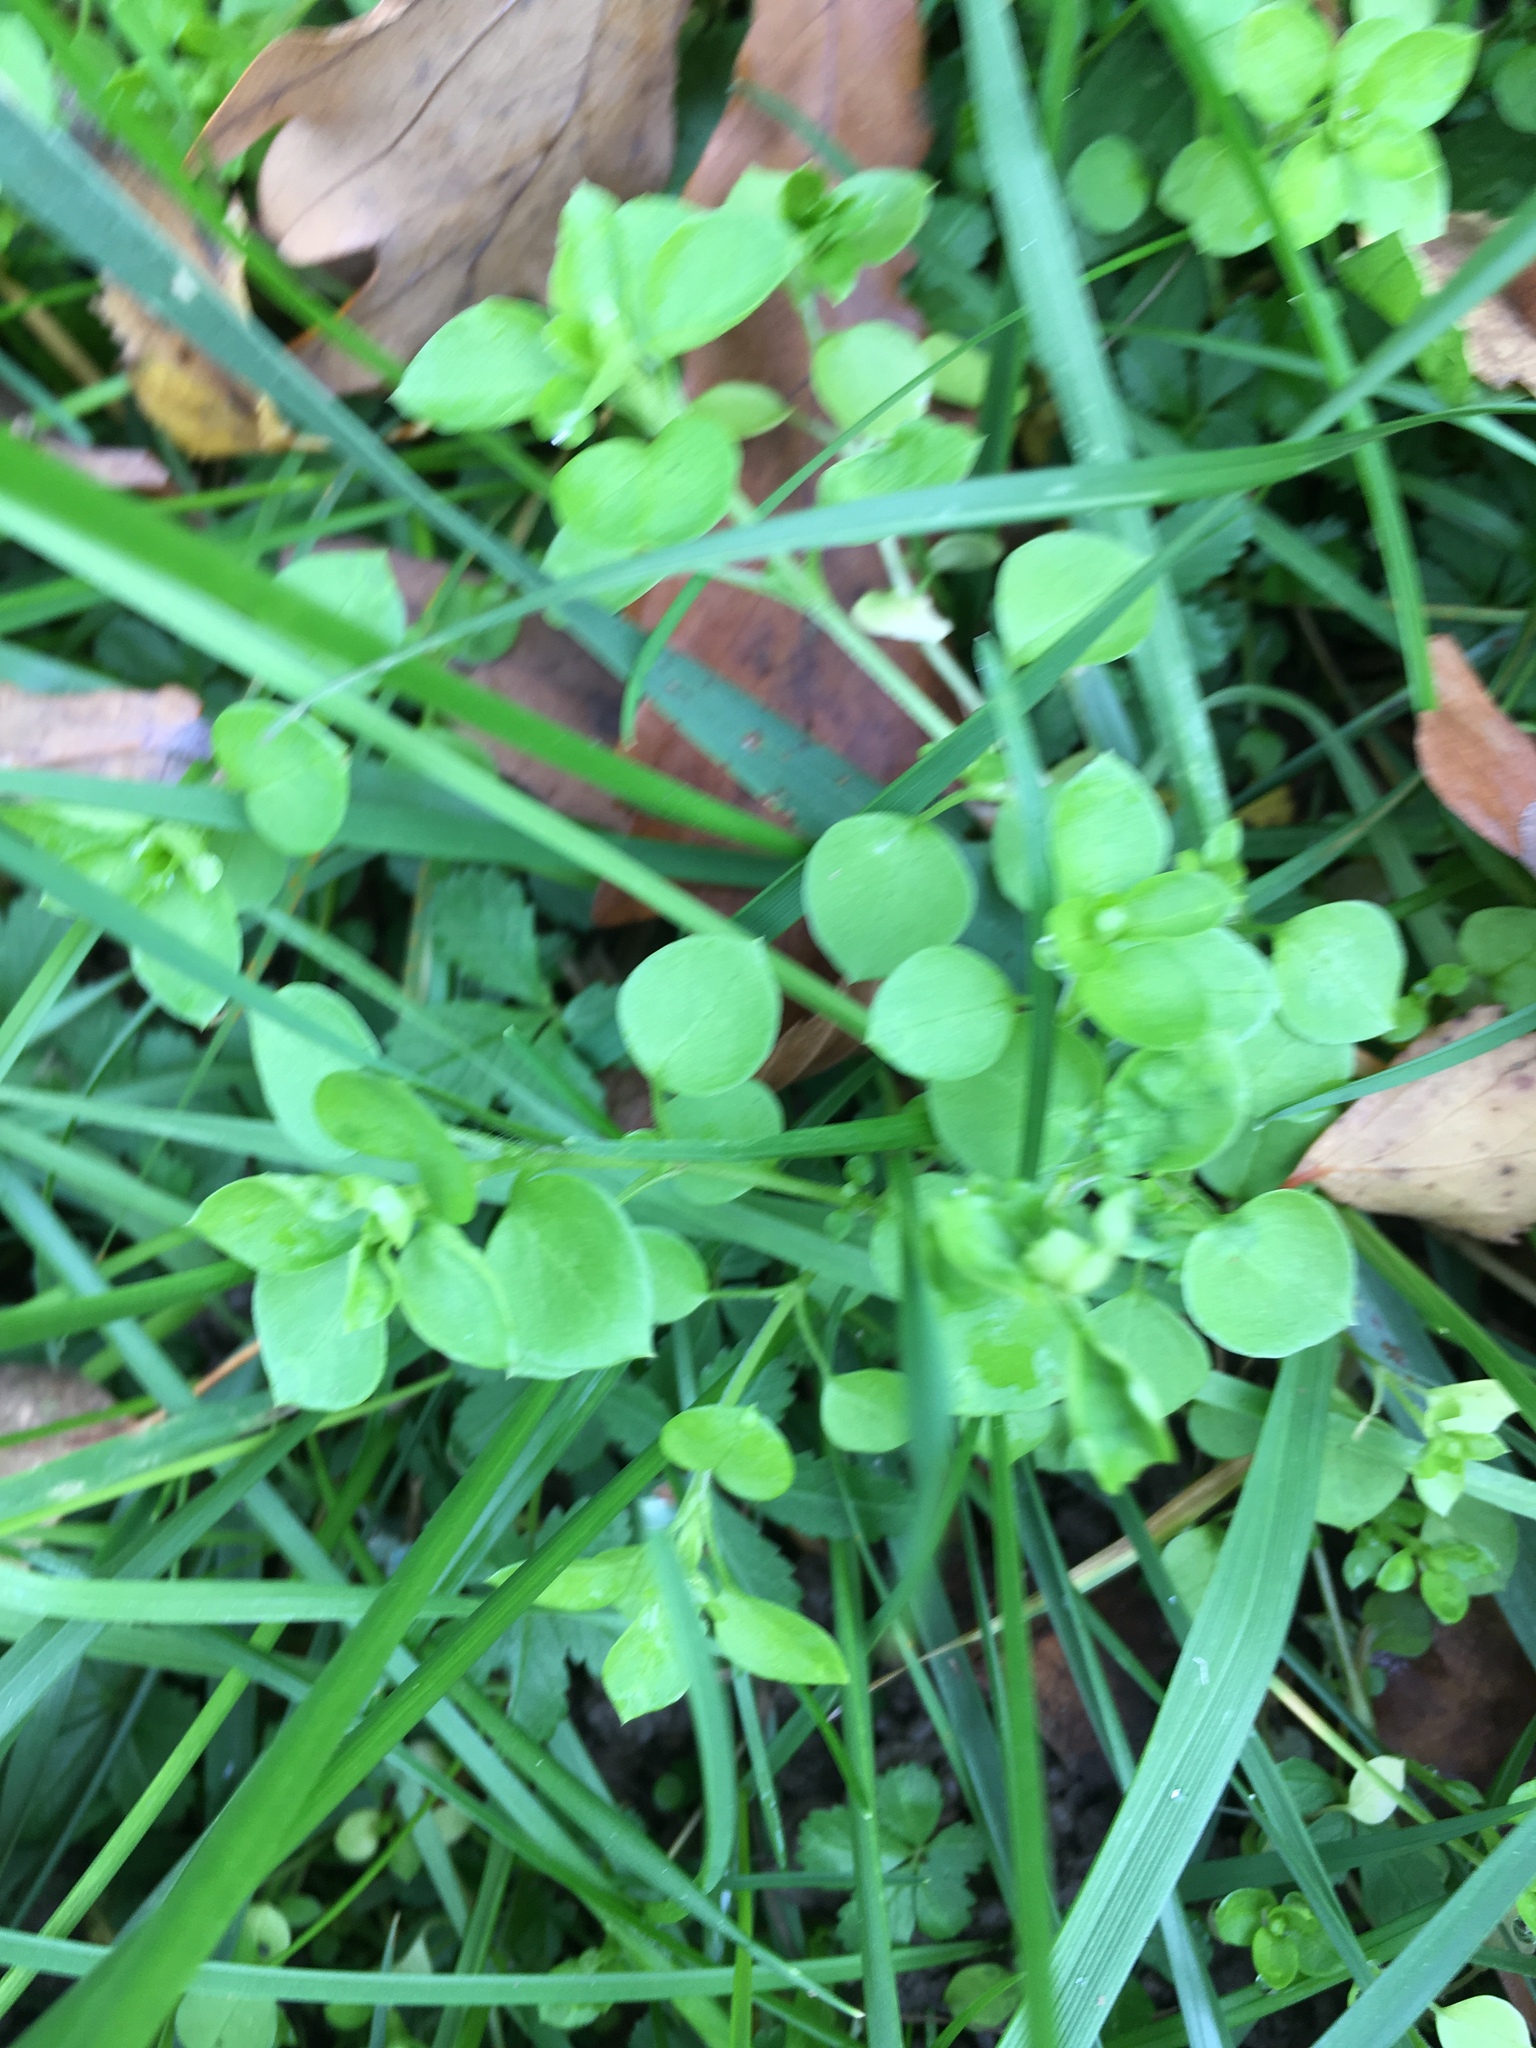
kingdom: Plantae
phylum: Tracheophyta
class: Magnoliopsida
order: Caryophyllales
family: Caryophyllaceae
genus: Stellaria
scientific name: Stellaria media
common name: Common chickweed
